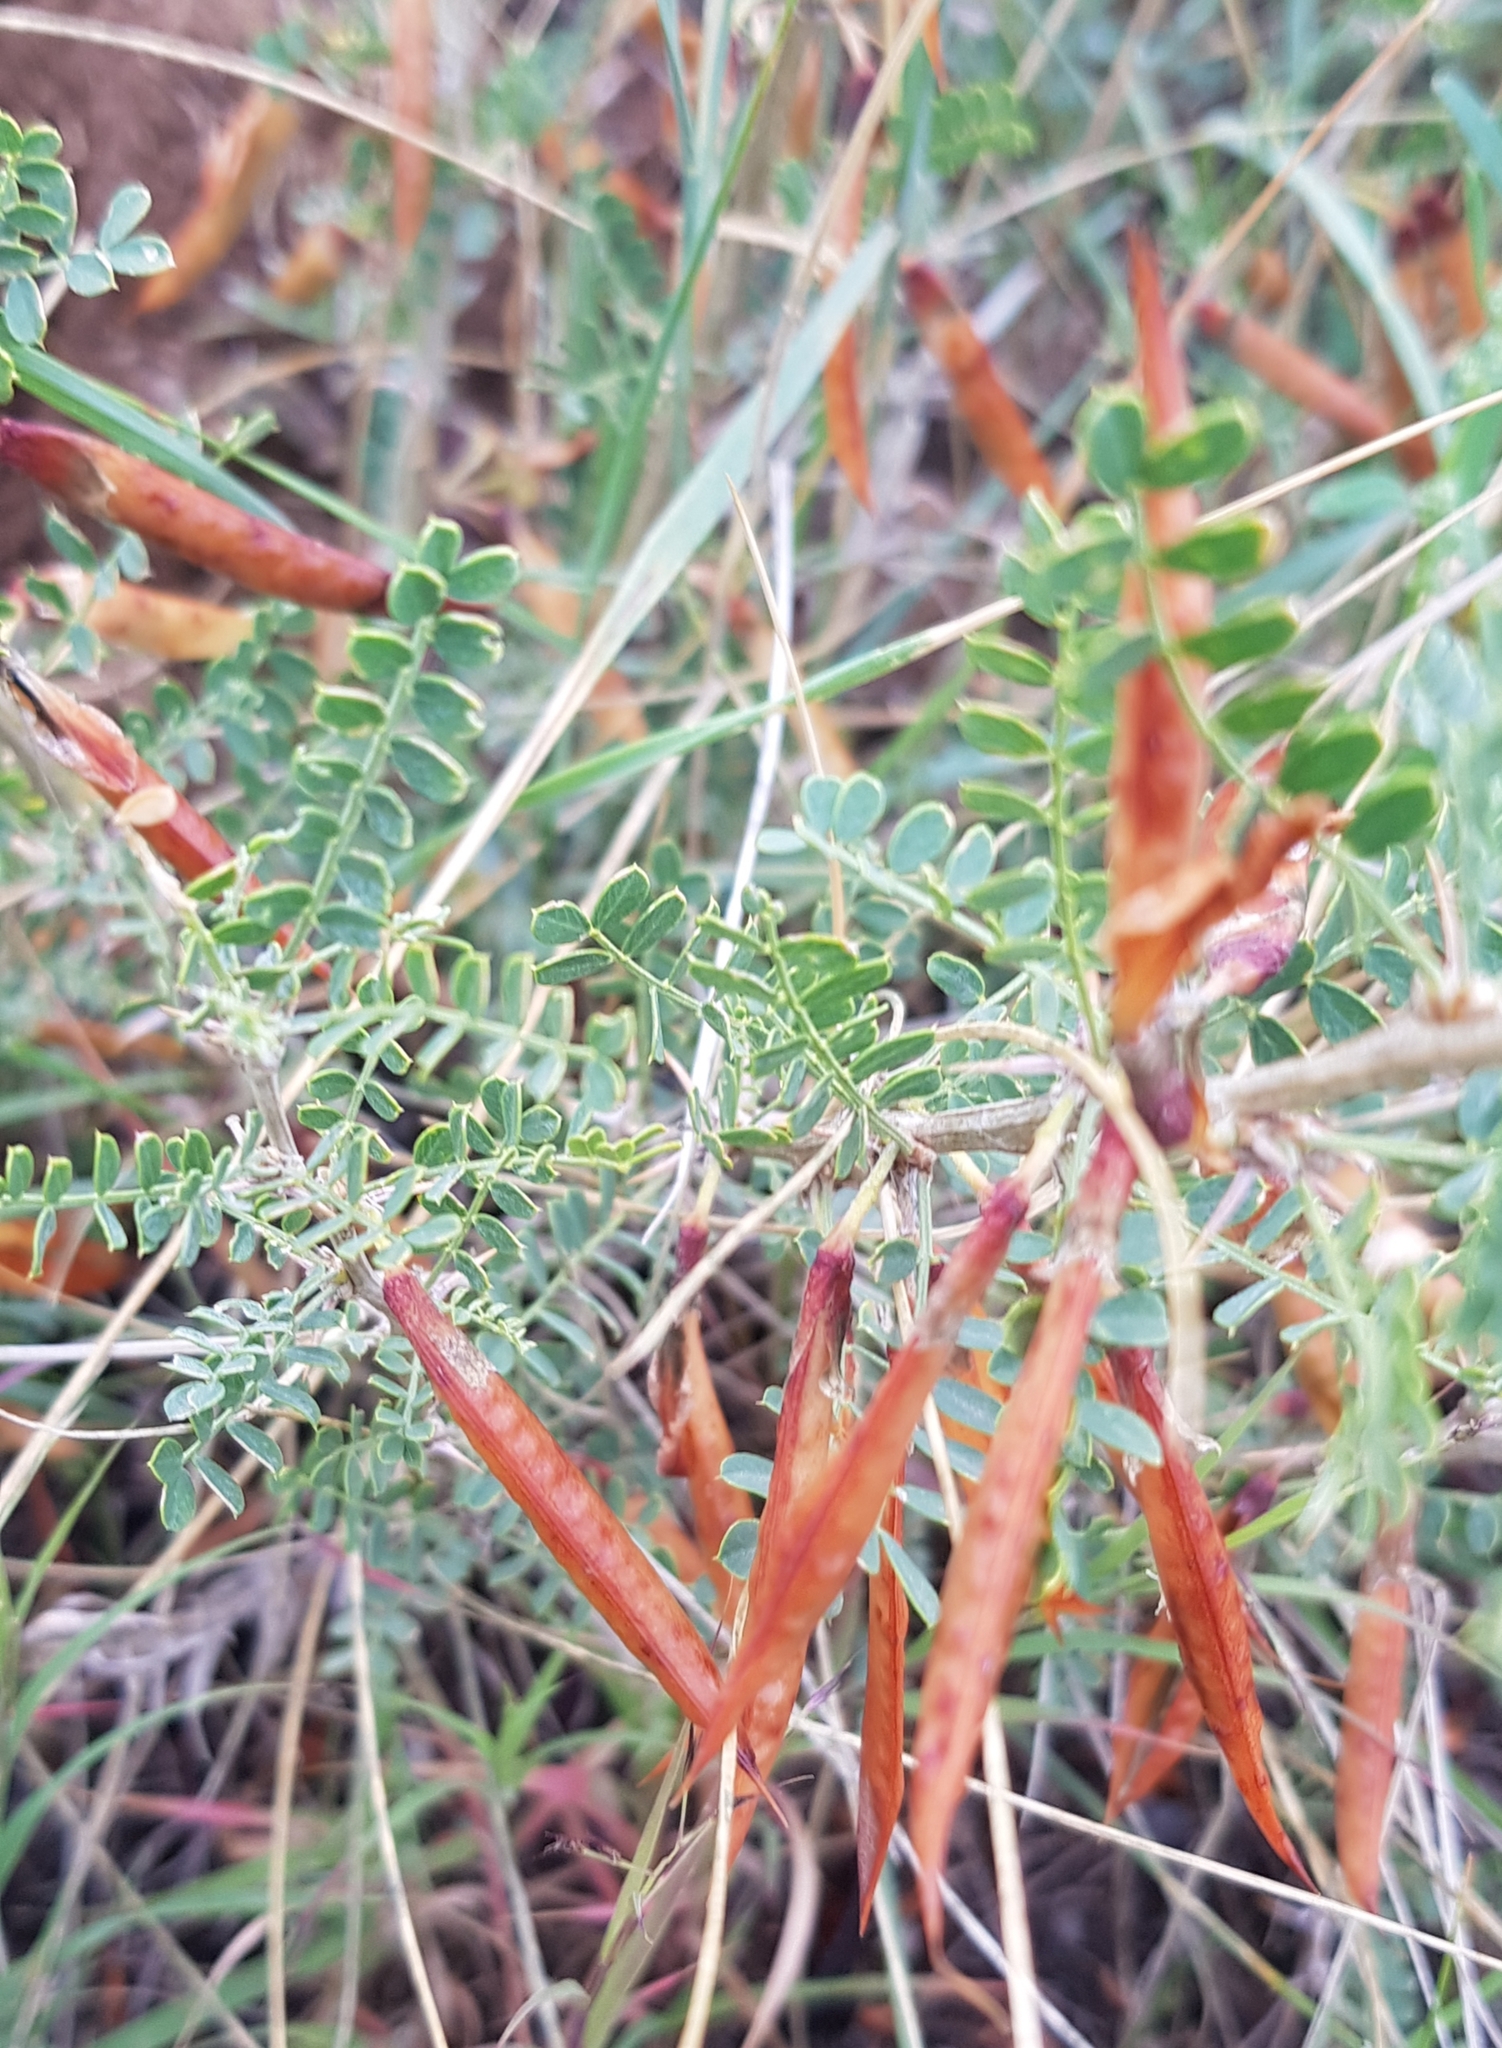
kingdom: Plantae
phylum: Tracheophyta
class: Magnoliopsida
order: Fabales
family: Fabaceae
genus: Caragana
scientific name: Caragana microphylla
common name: Littleleaf peashrub
